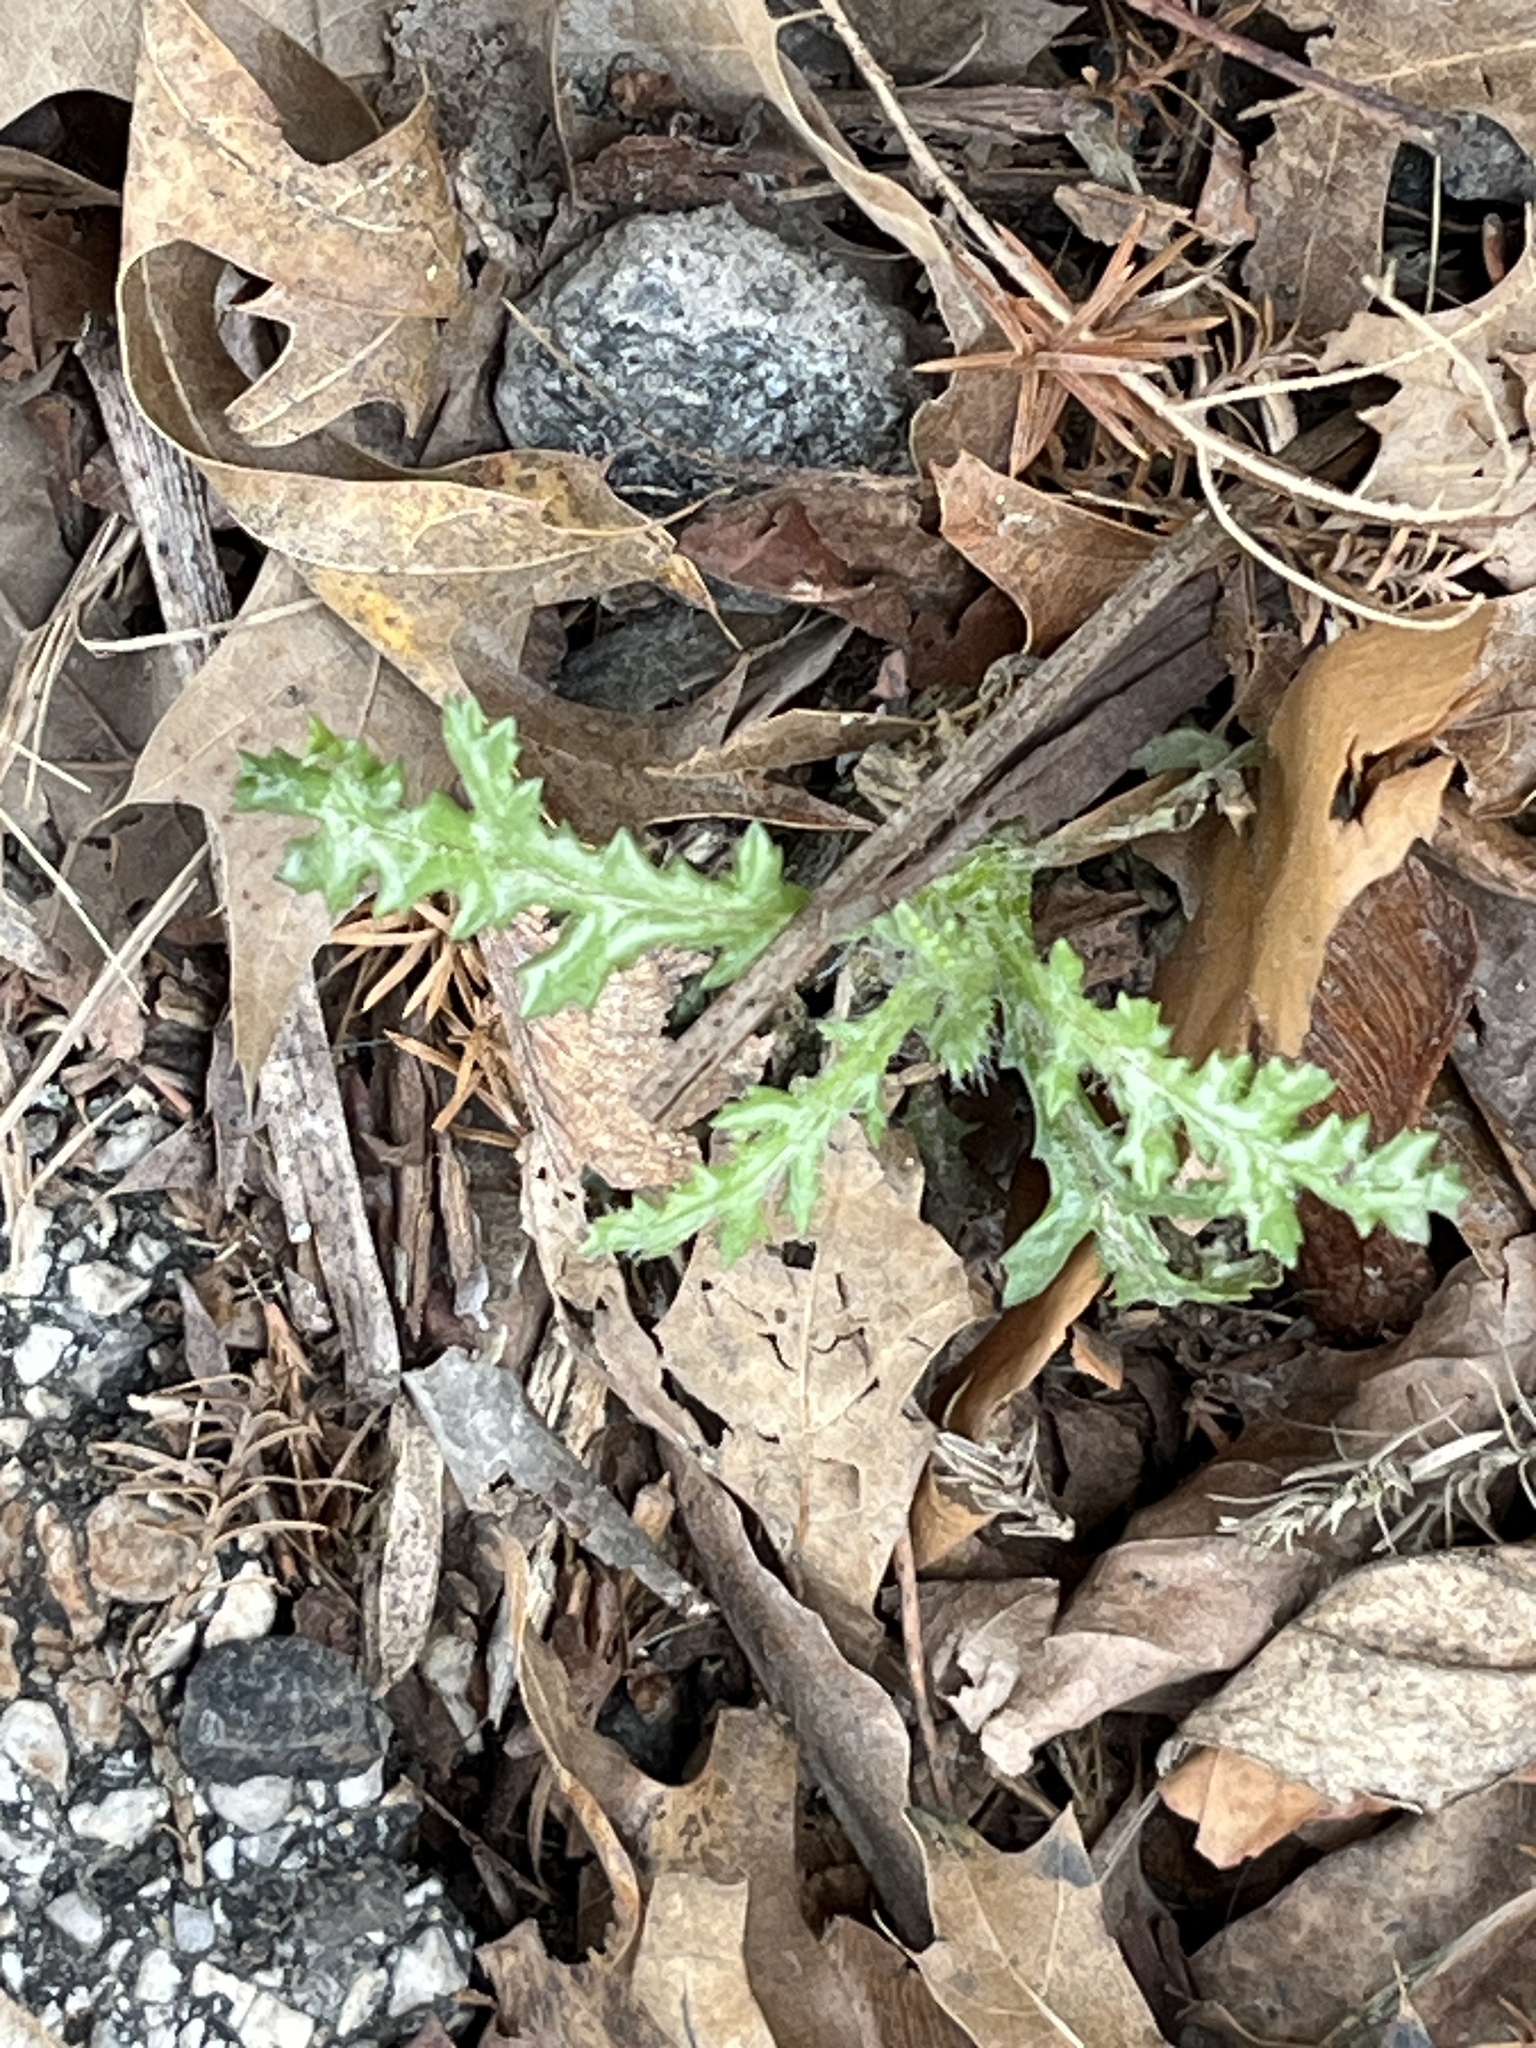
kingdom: Plantae
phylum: Tracheophyta
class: Magnoliopsida
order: Asterales
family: Asteraceae
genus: Senecio
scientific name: Senecio vulgaris
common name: Old-man-in-the-spring
